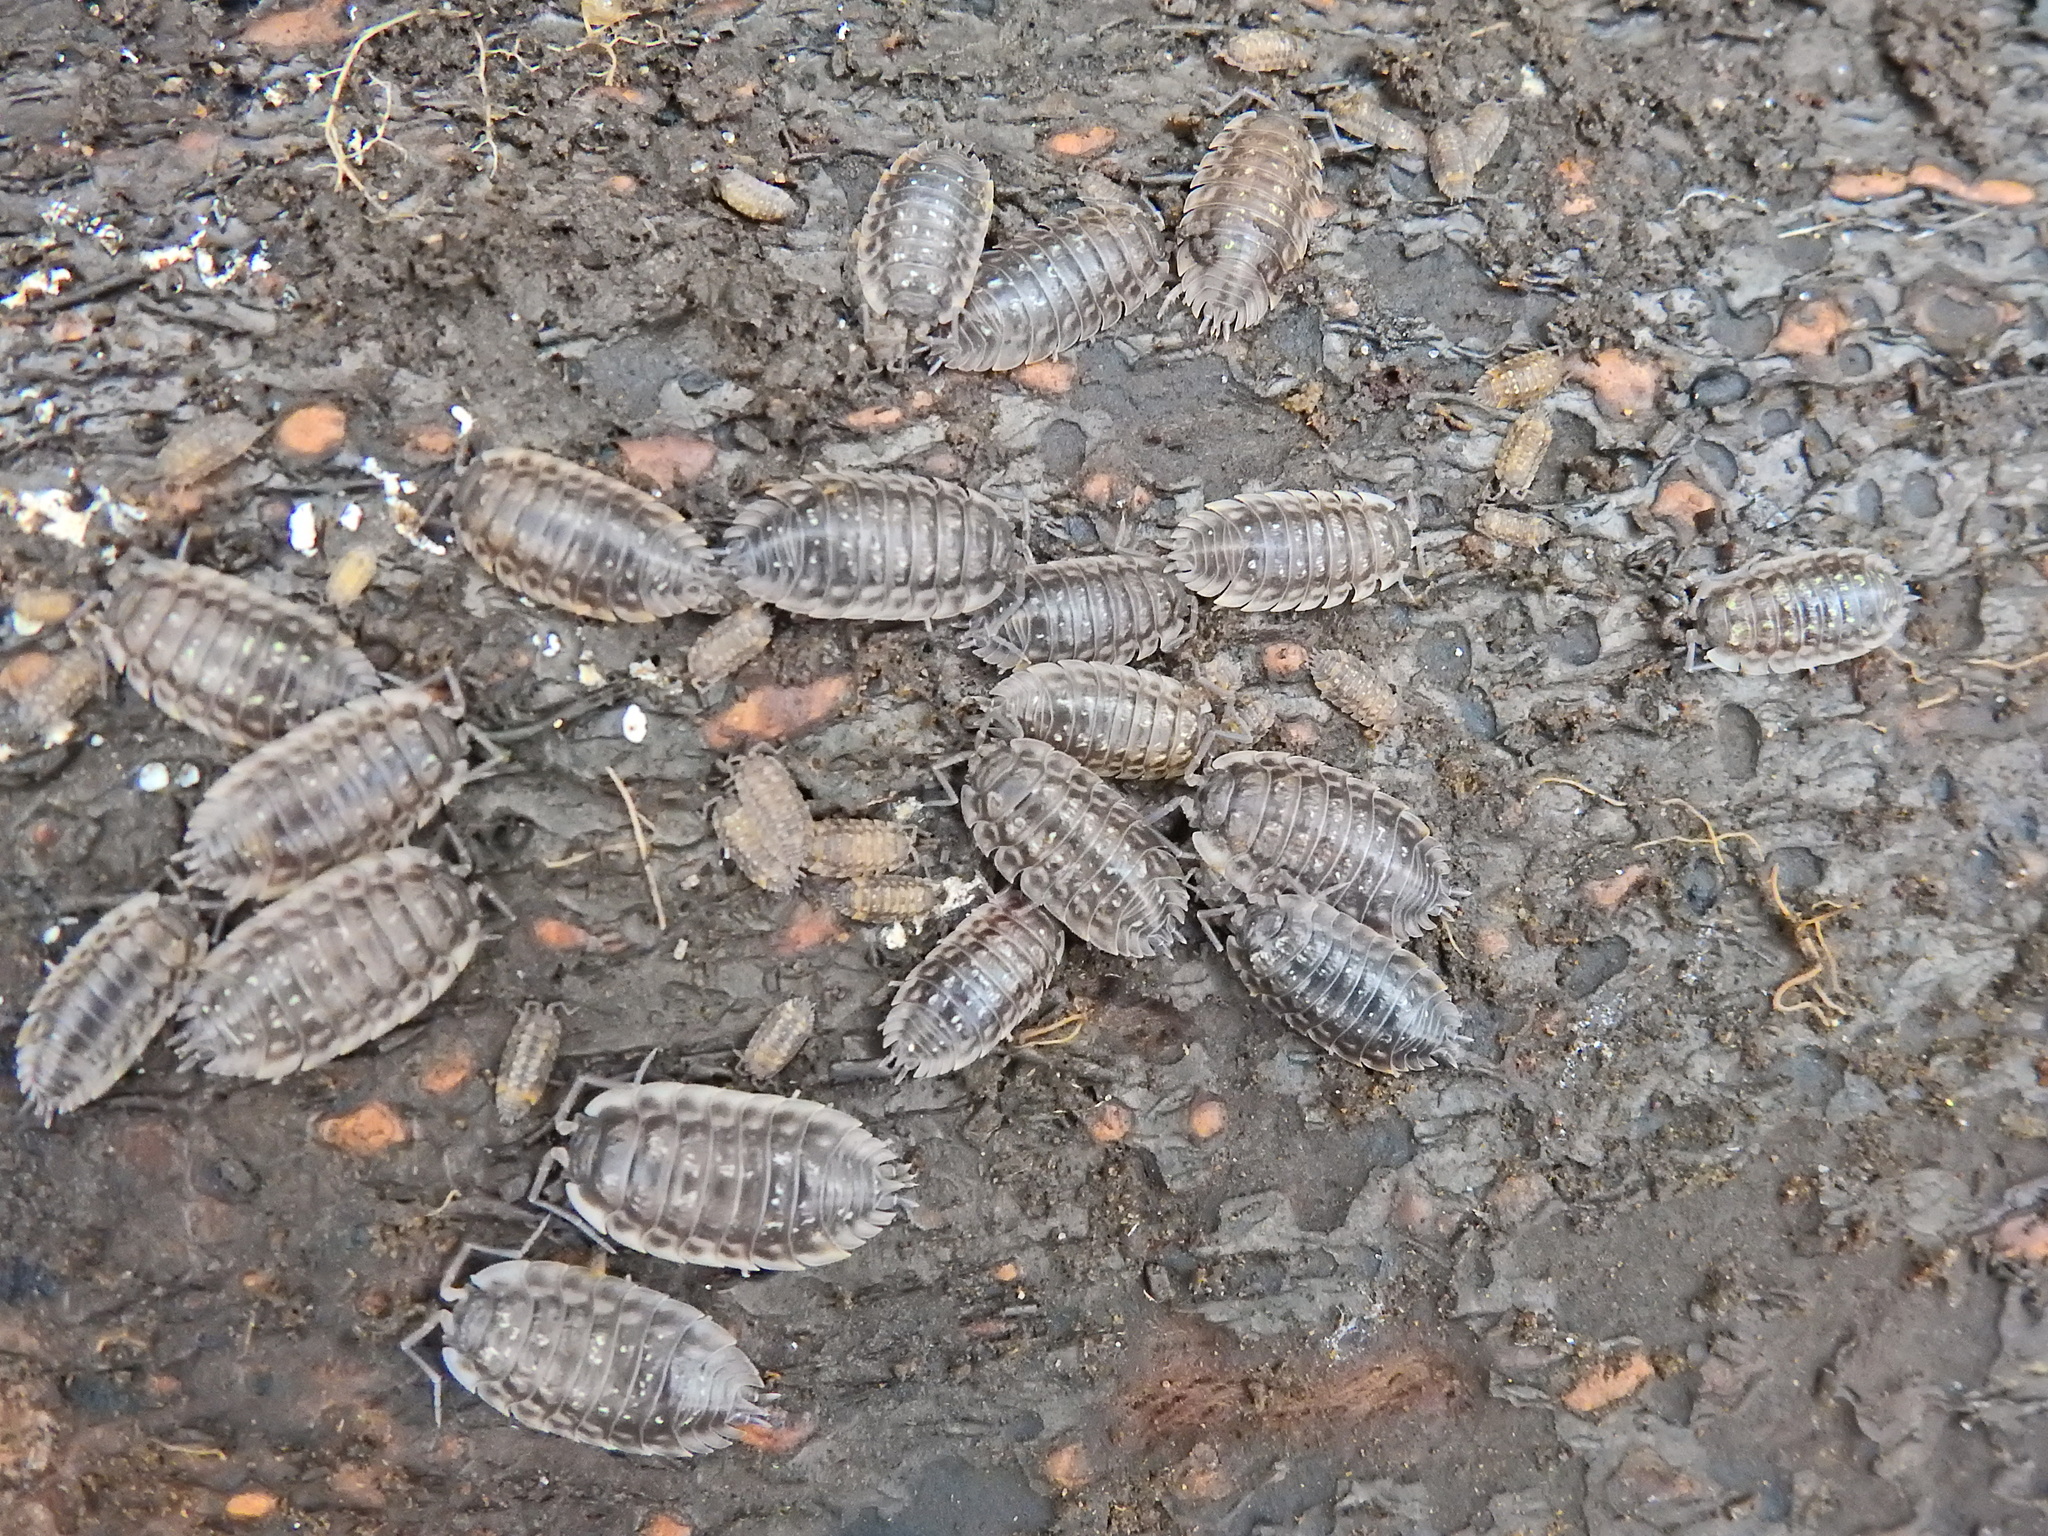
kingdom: Animalia
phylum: Arthropoda
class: Malacostraca
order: Isopoda
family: Oniscidae
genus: Oniscus
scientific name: Oniscus asellus
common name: Common shiny woodlouse
